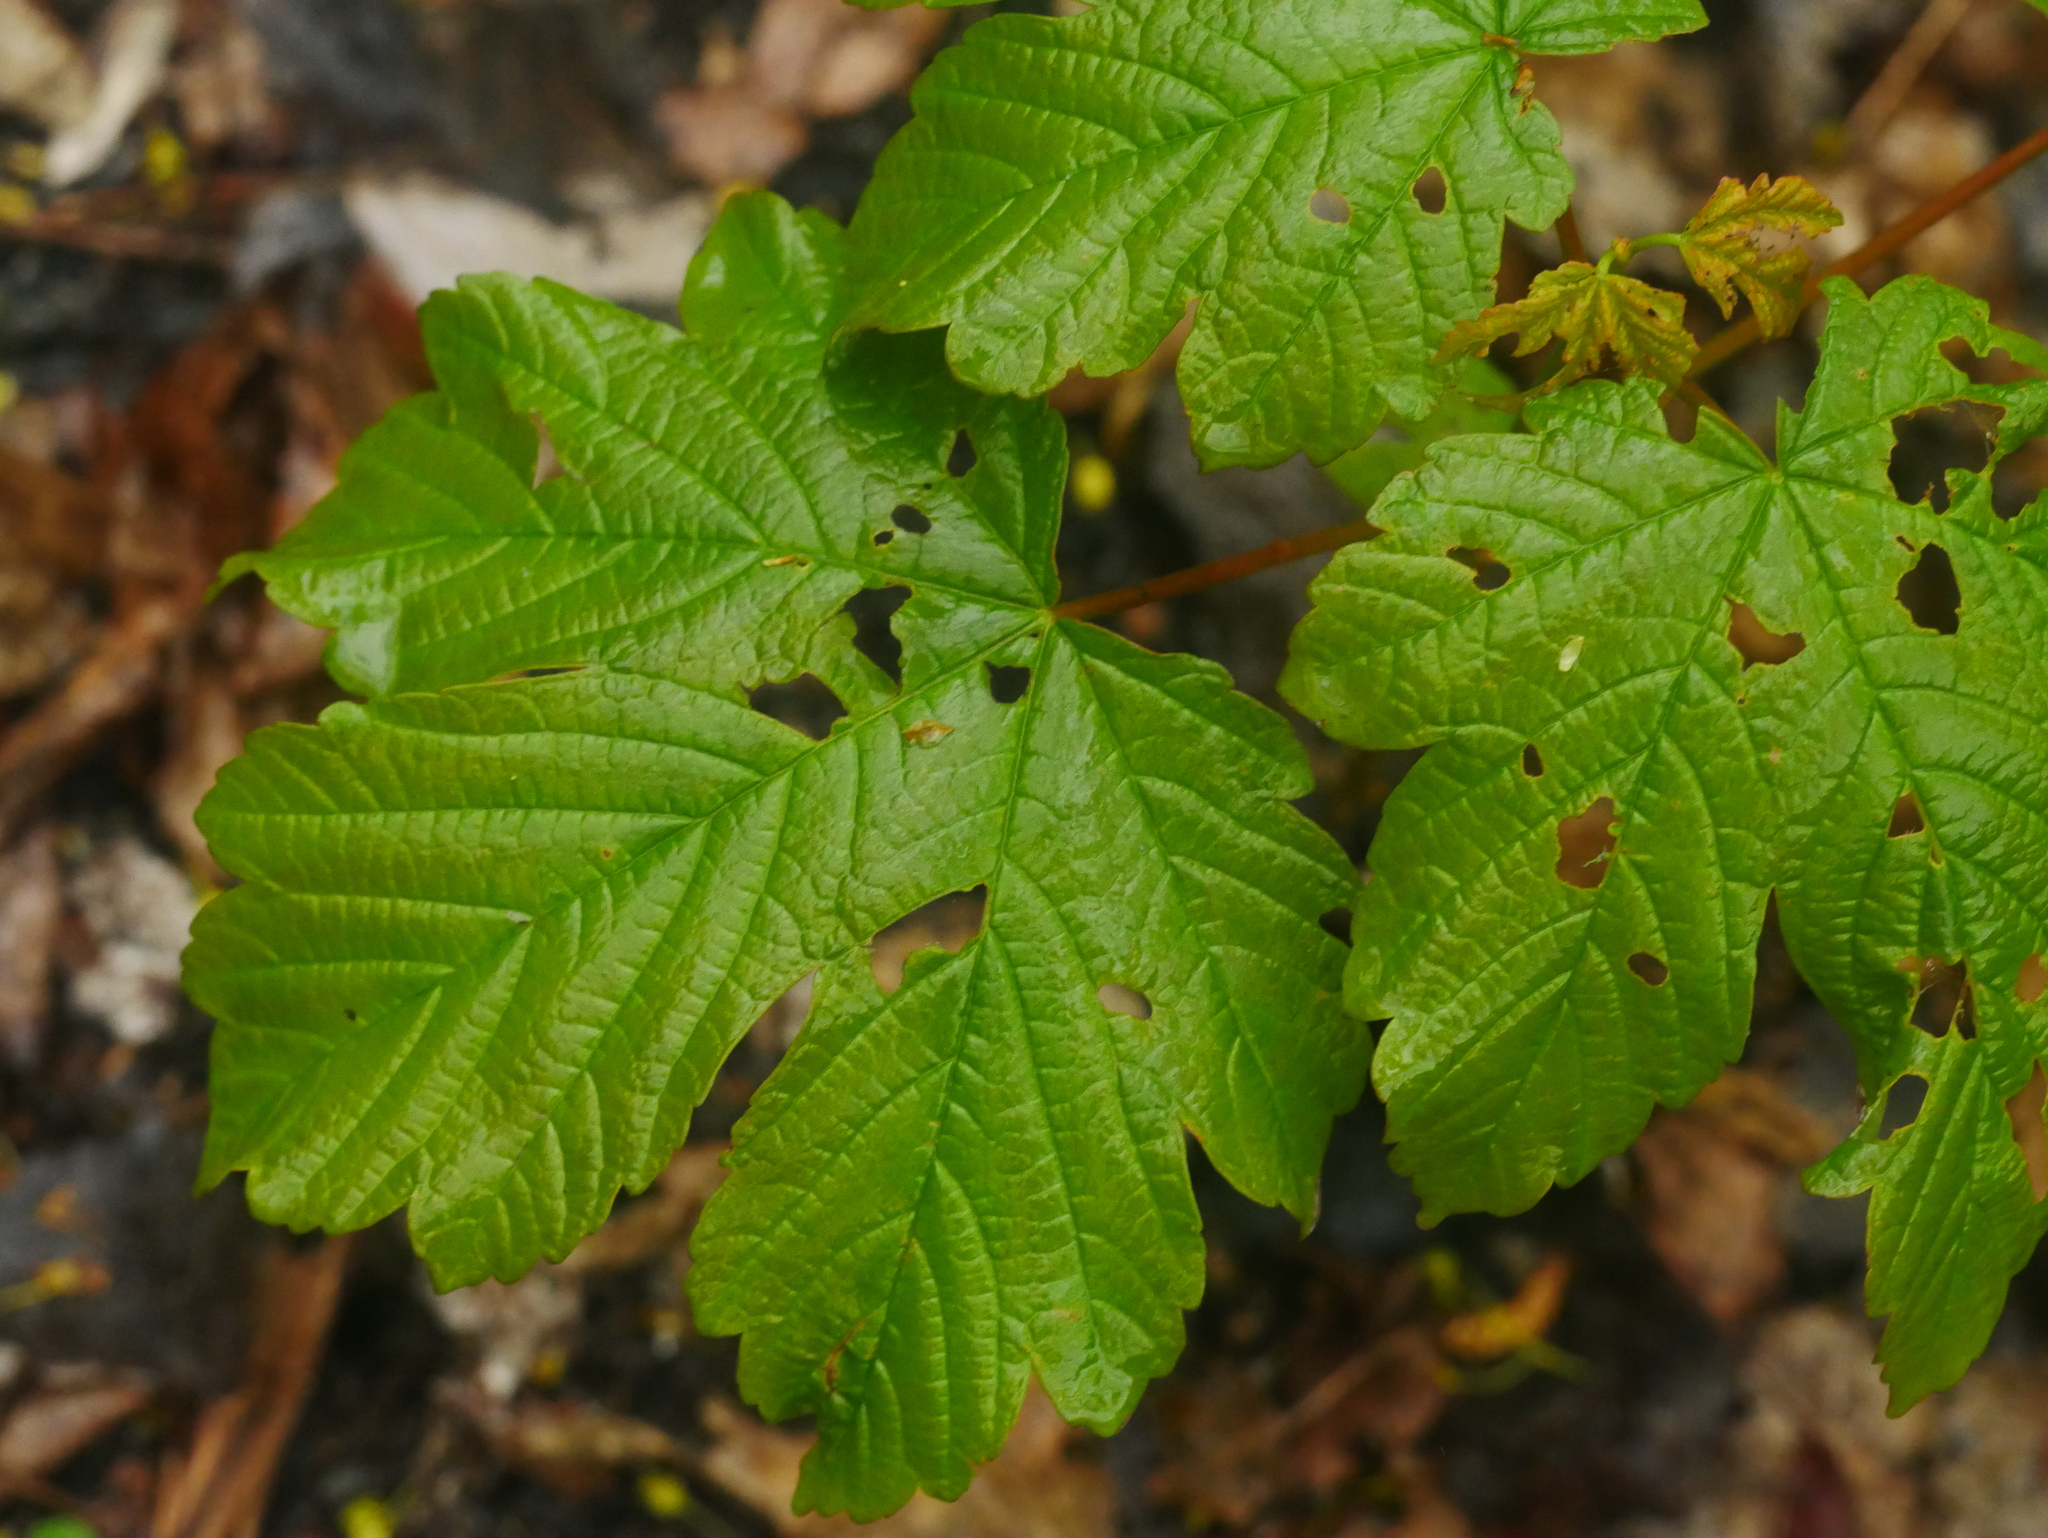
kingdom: Plantae
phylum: Tracheophyta
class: Magnoliopsida
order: Sapindales
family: Sapindaceae
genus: Acer
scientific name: Acer pseudoplatanus
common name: Sycamore
